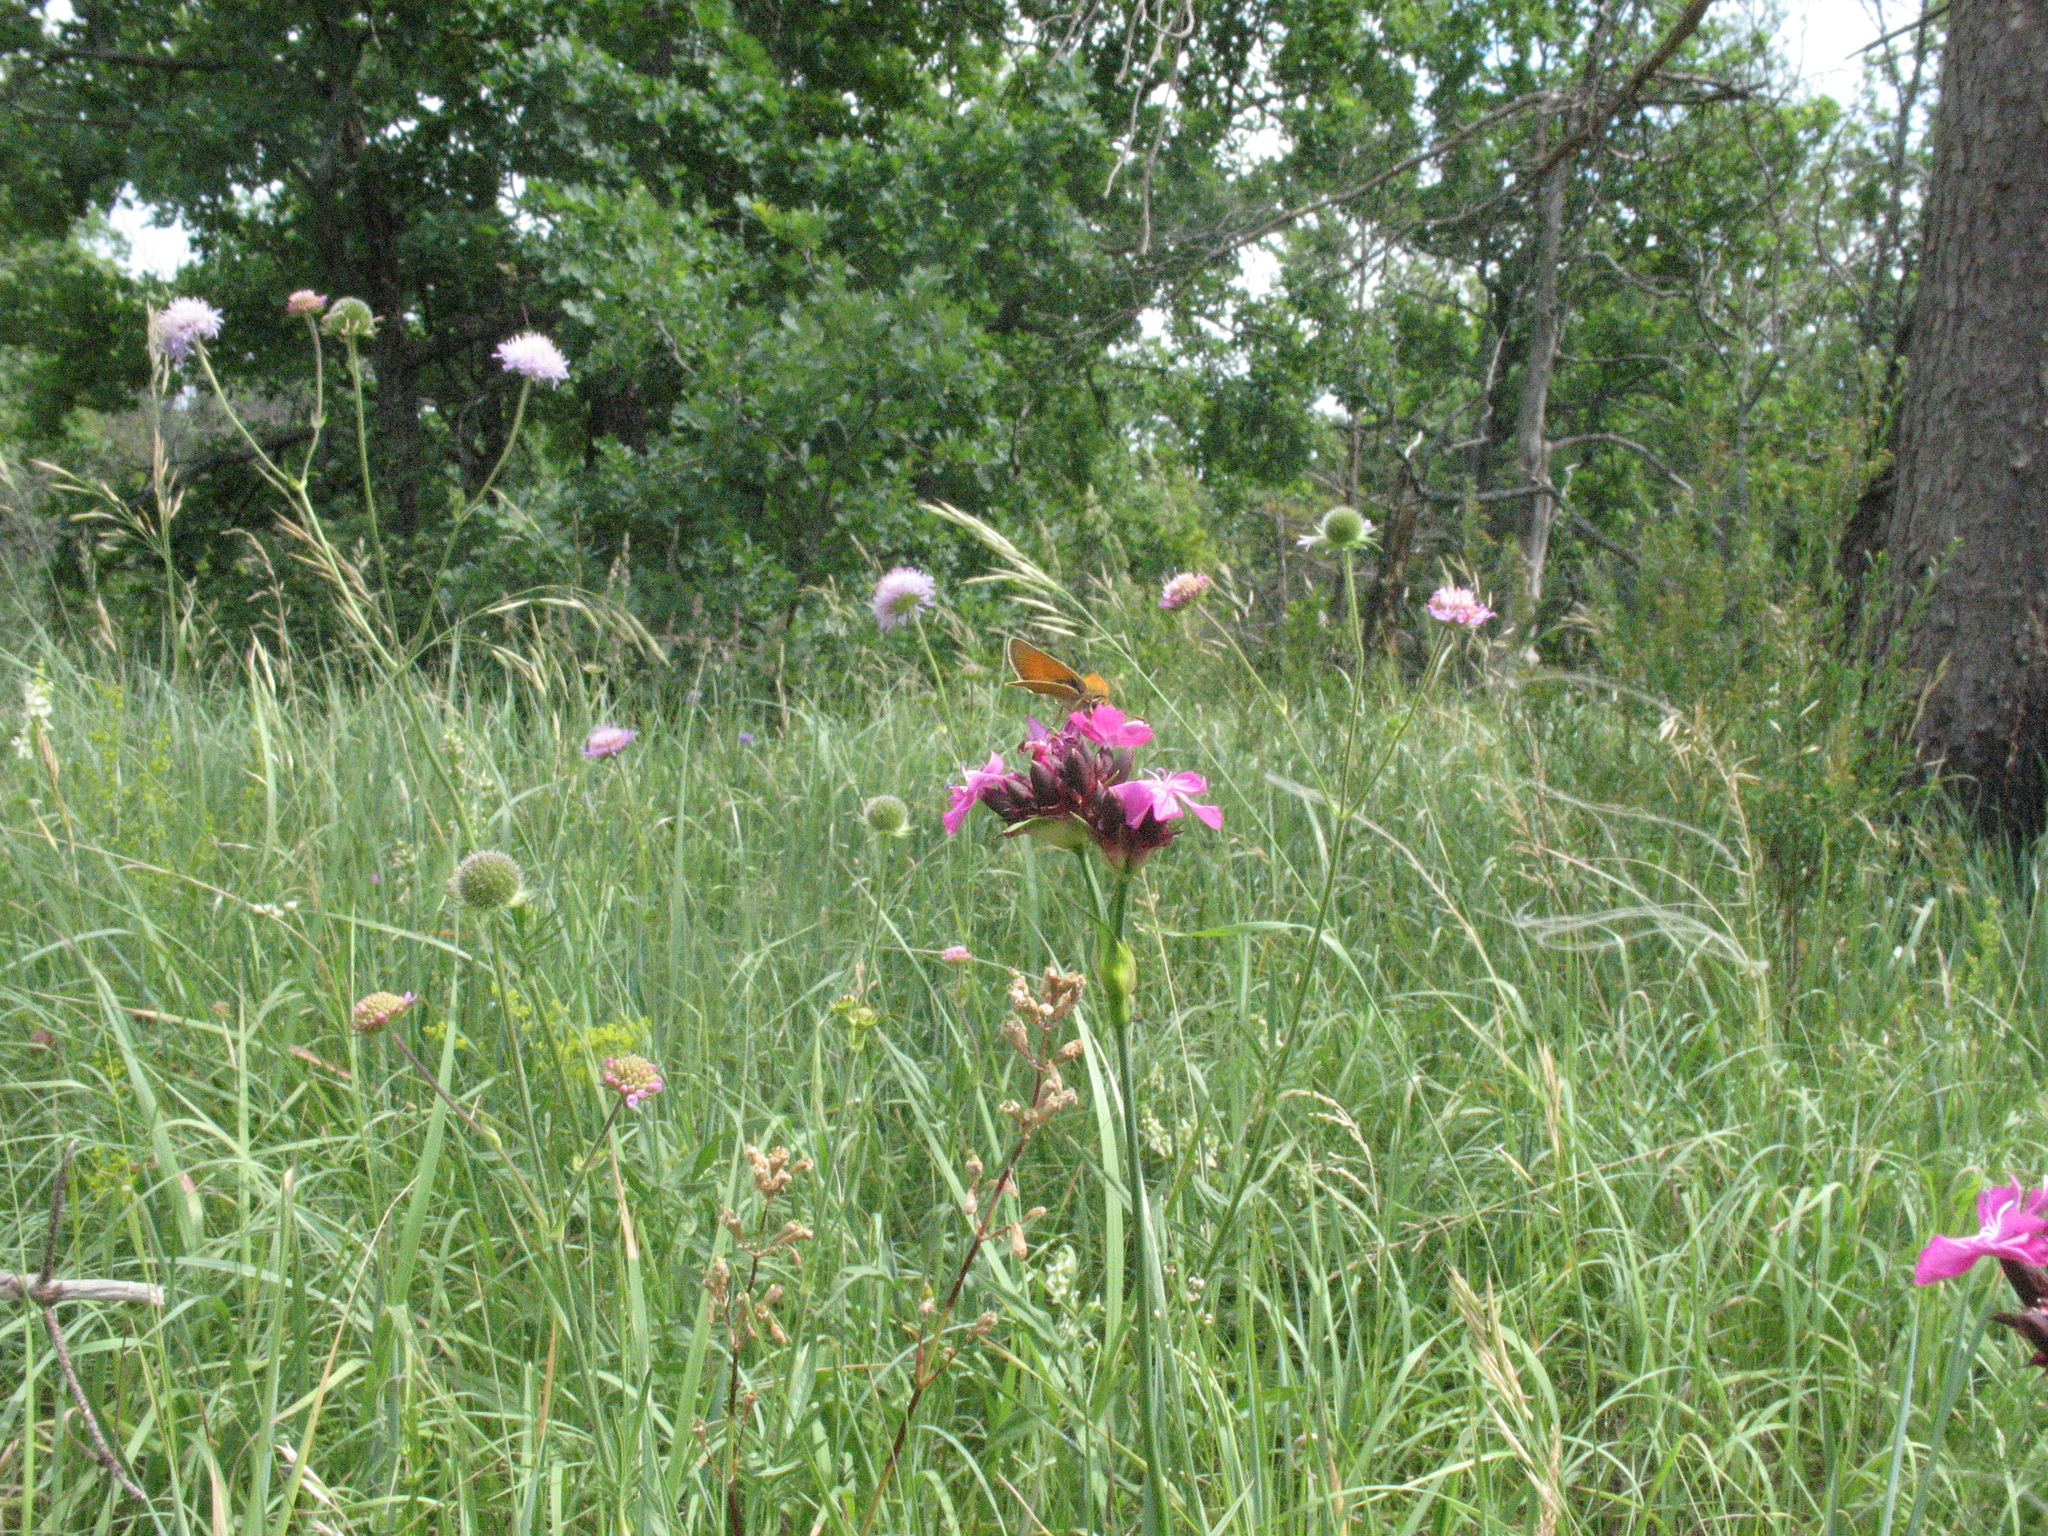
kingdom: Plantae
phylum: Tracheophyta
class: Magnoliopsida
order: Caryophyllales
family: Caryophyllaceae
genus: Dianthus
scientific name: Dianthus capitatus
